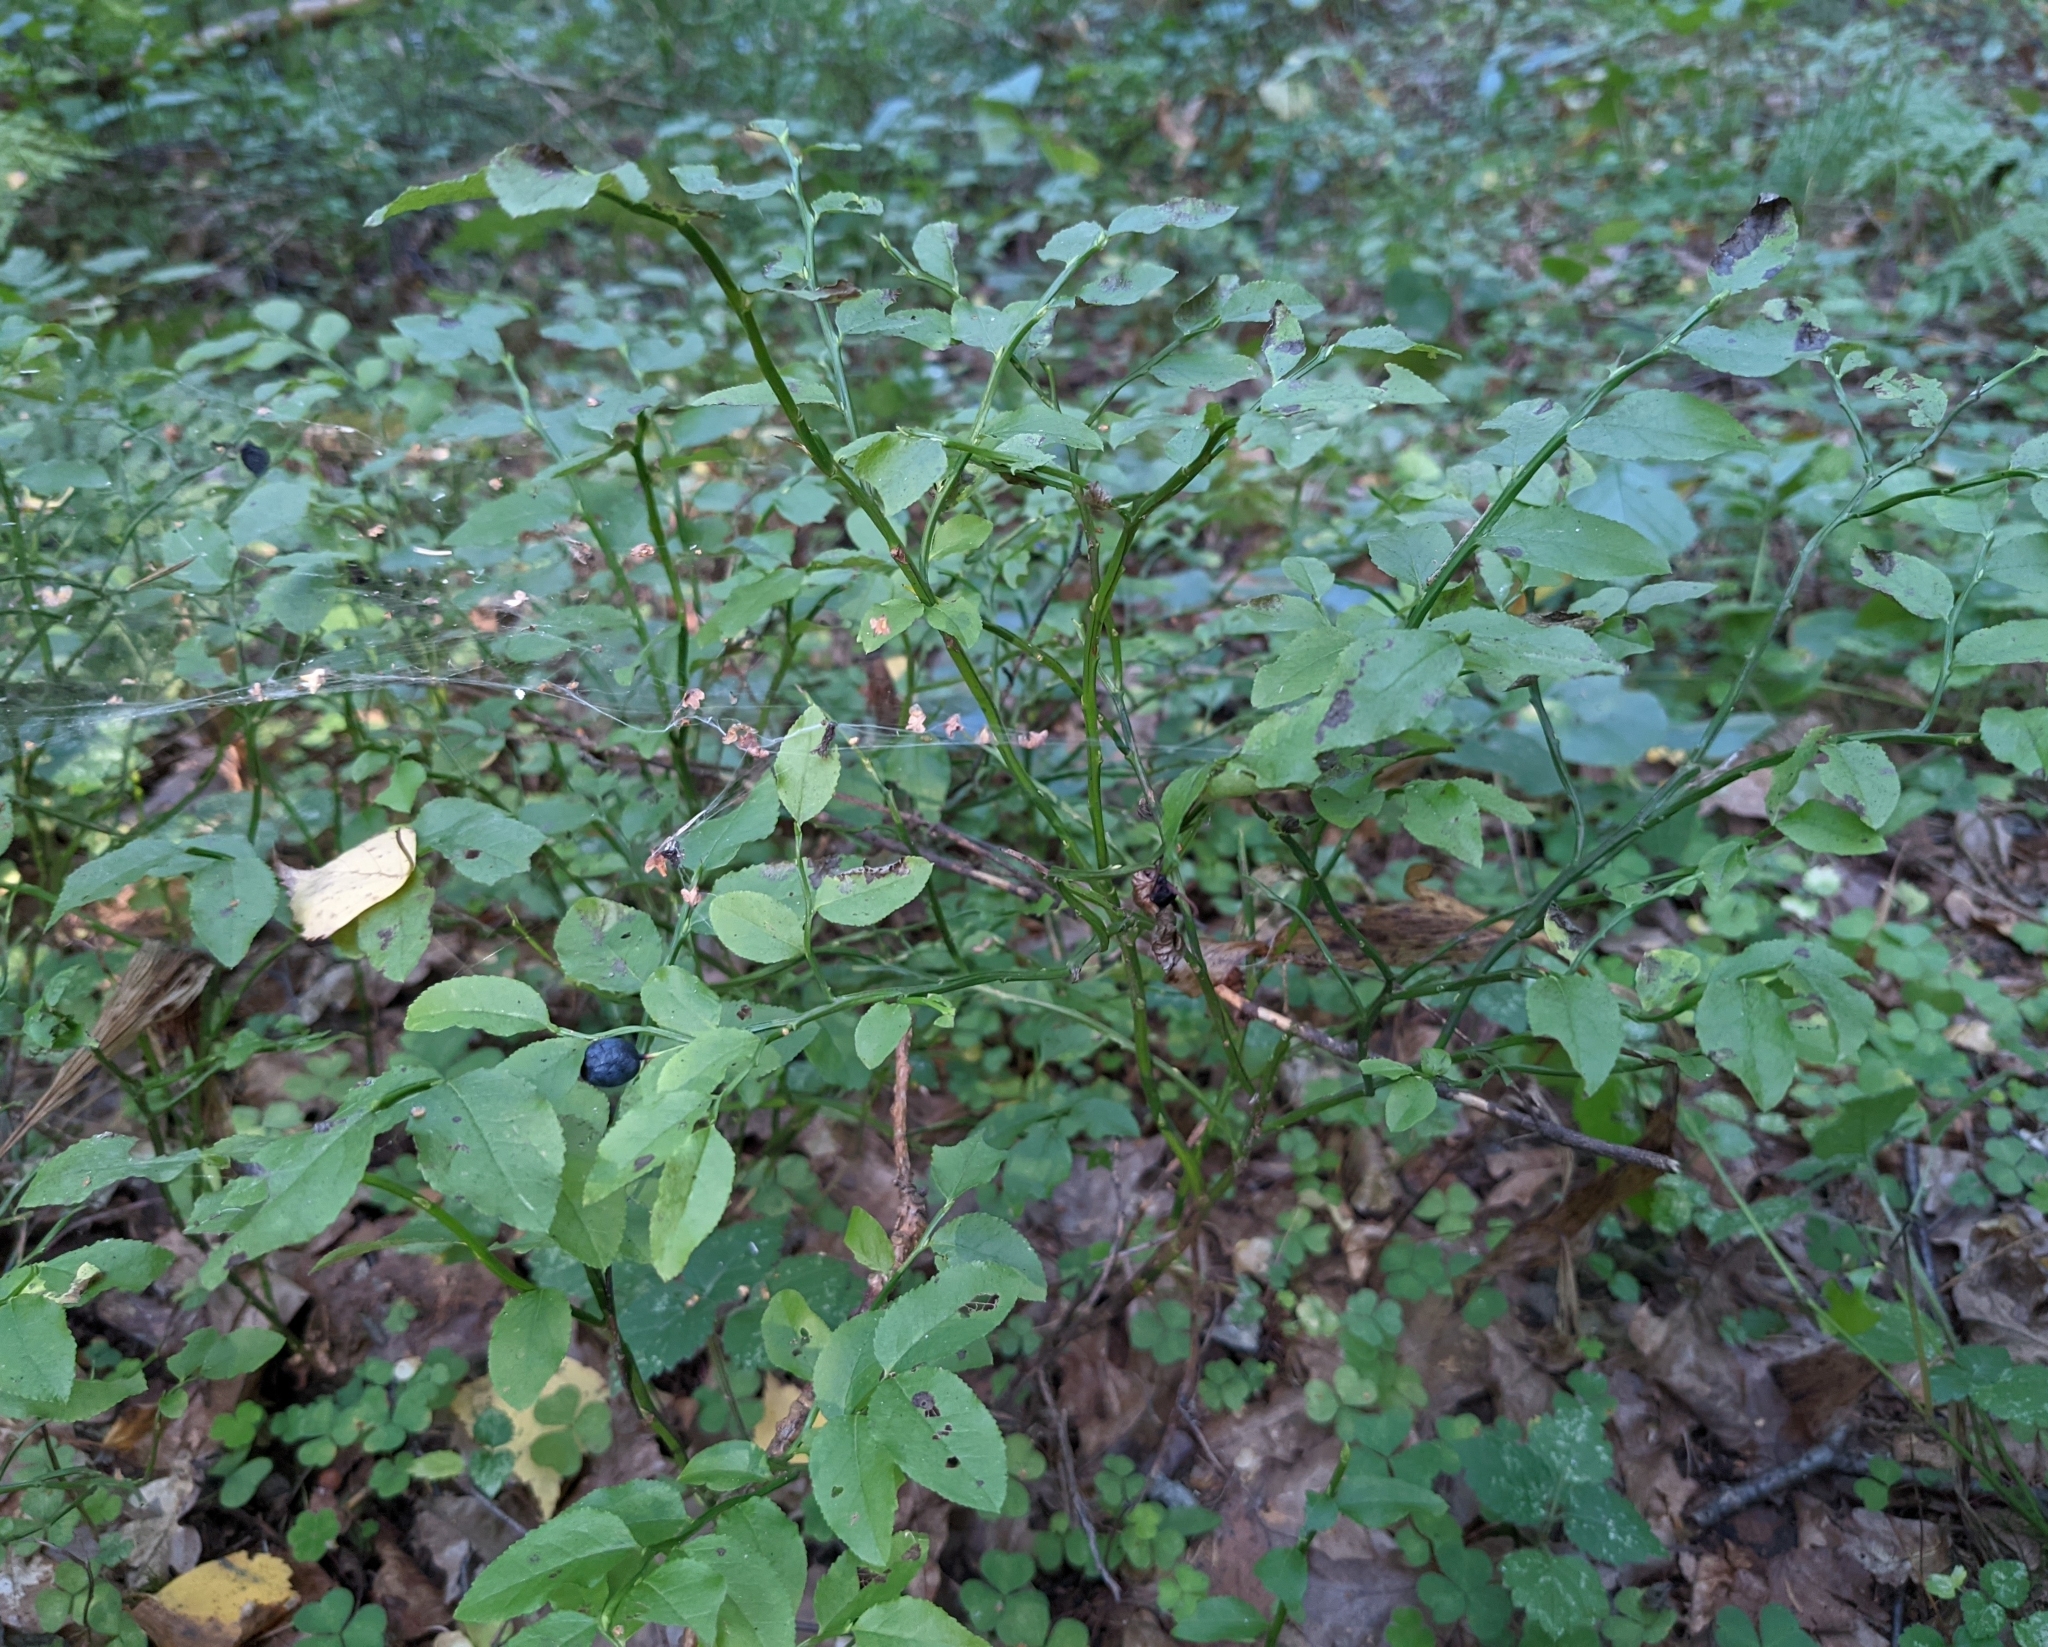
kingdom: Plantae
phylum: Tracheophyta
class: Magnoliopsida
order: Ericales
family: Ericaceae
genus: Vaccinium
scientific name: Vaccinium myrtillus
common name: Bilberry
